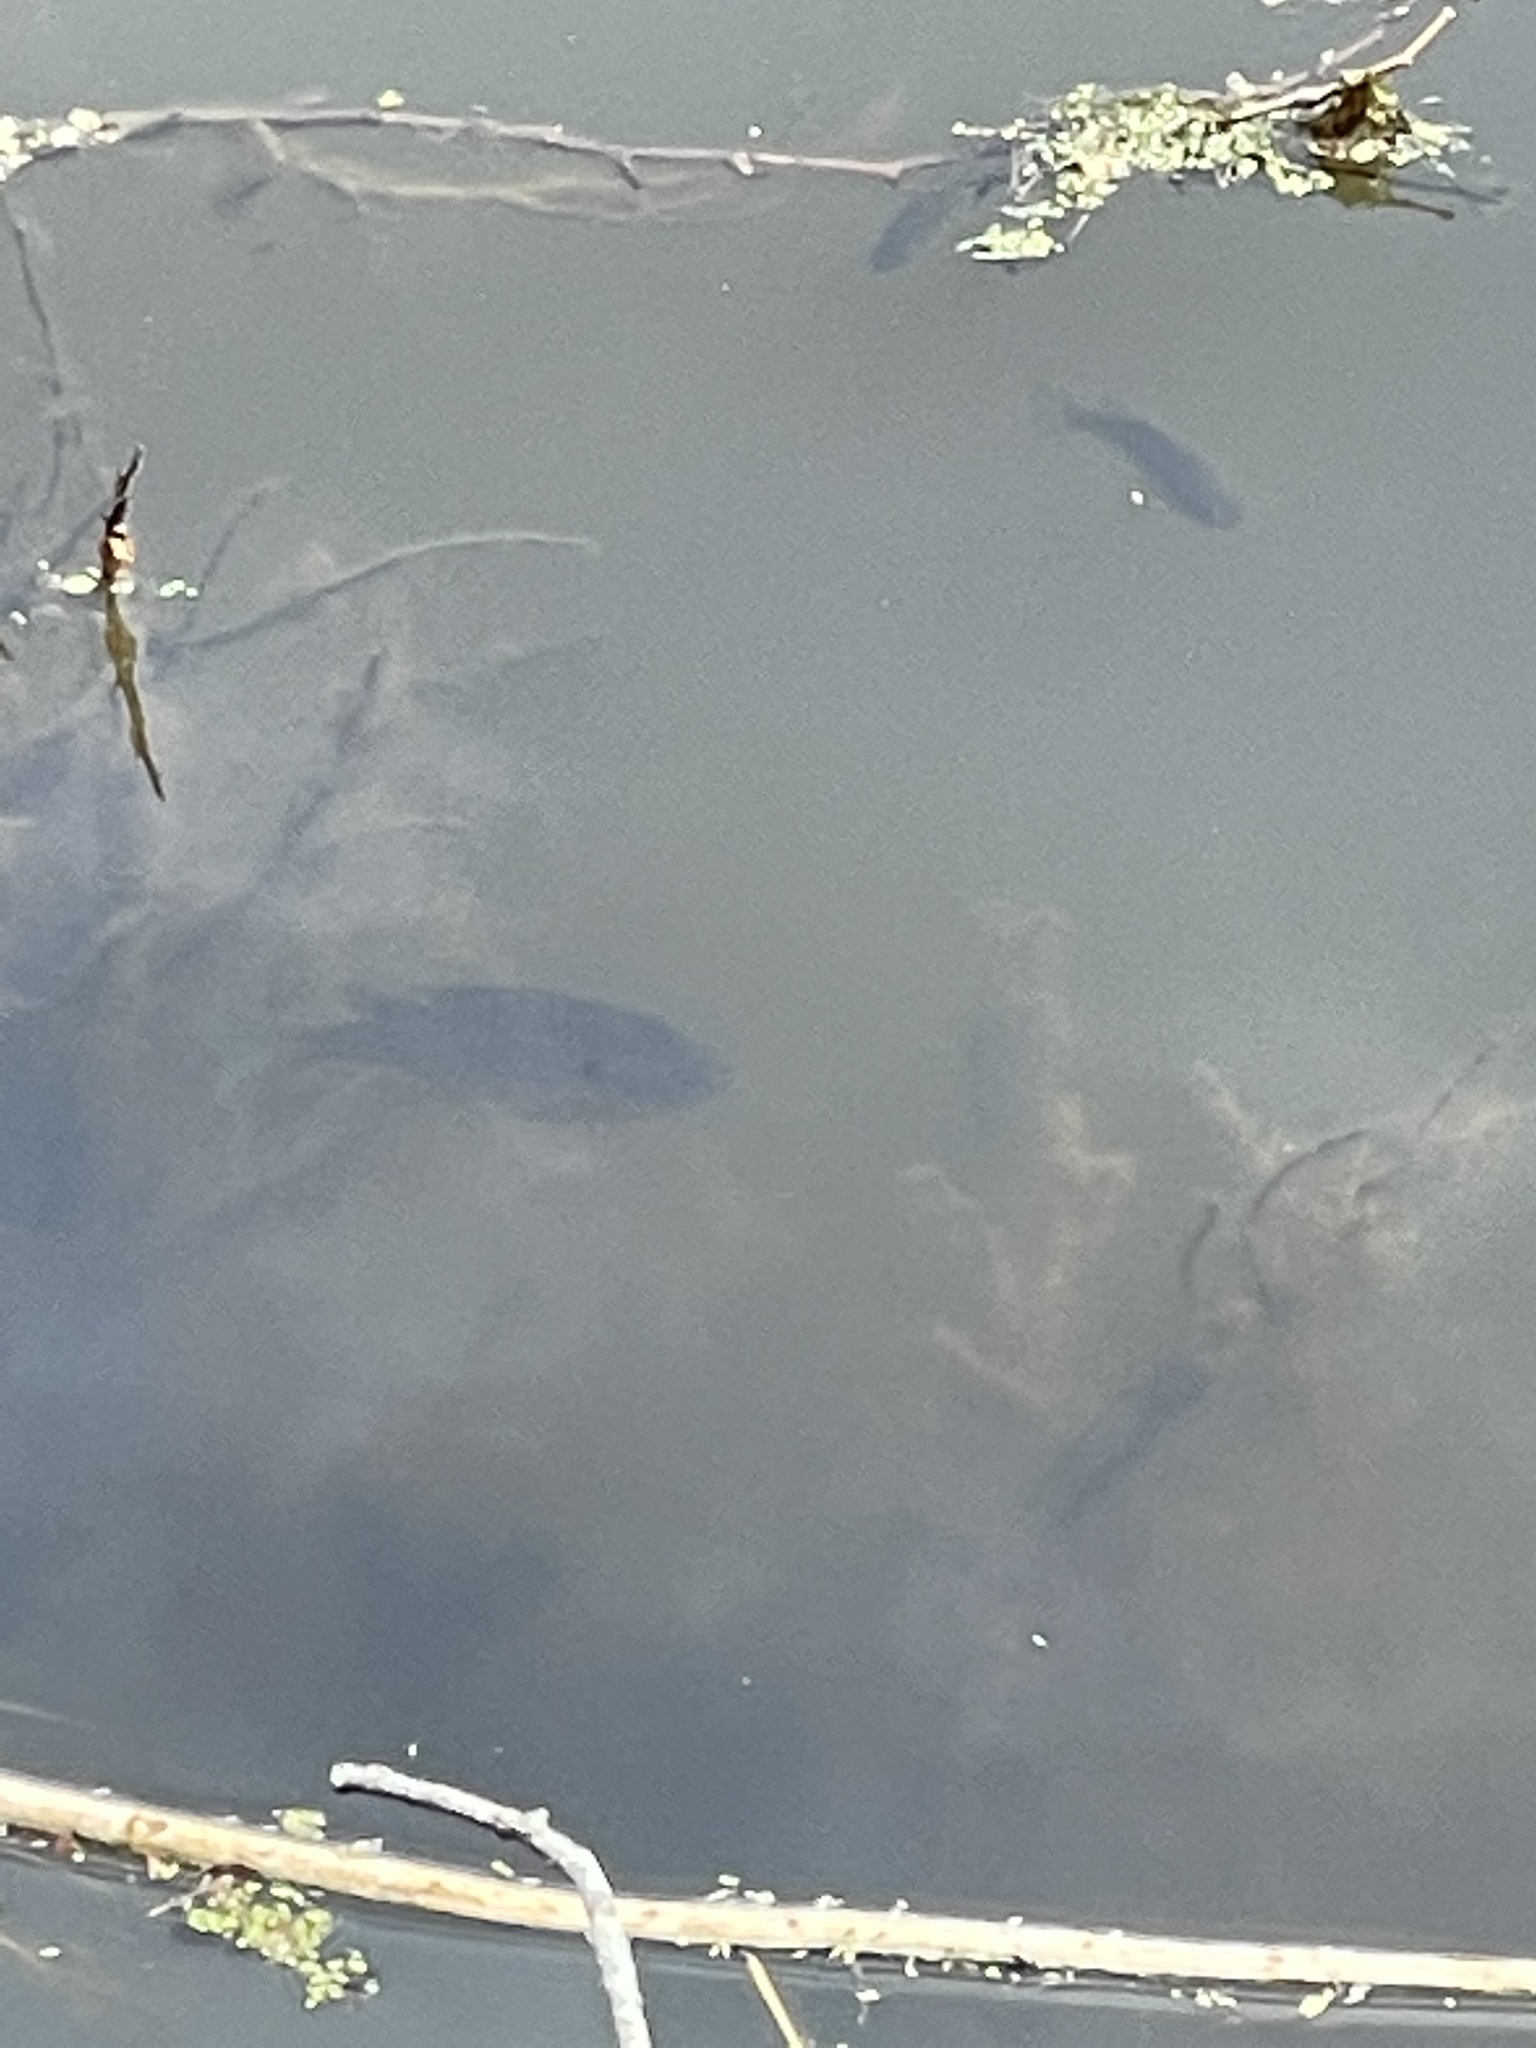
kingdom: Animalia
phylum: Chordata
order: Perciformes
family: Centrarchidae
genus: Lepomis
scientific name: Lepomis macrochirus
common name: Bluegill
